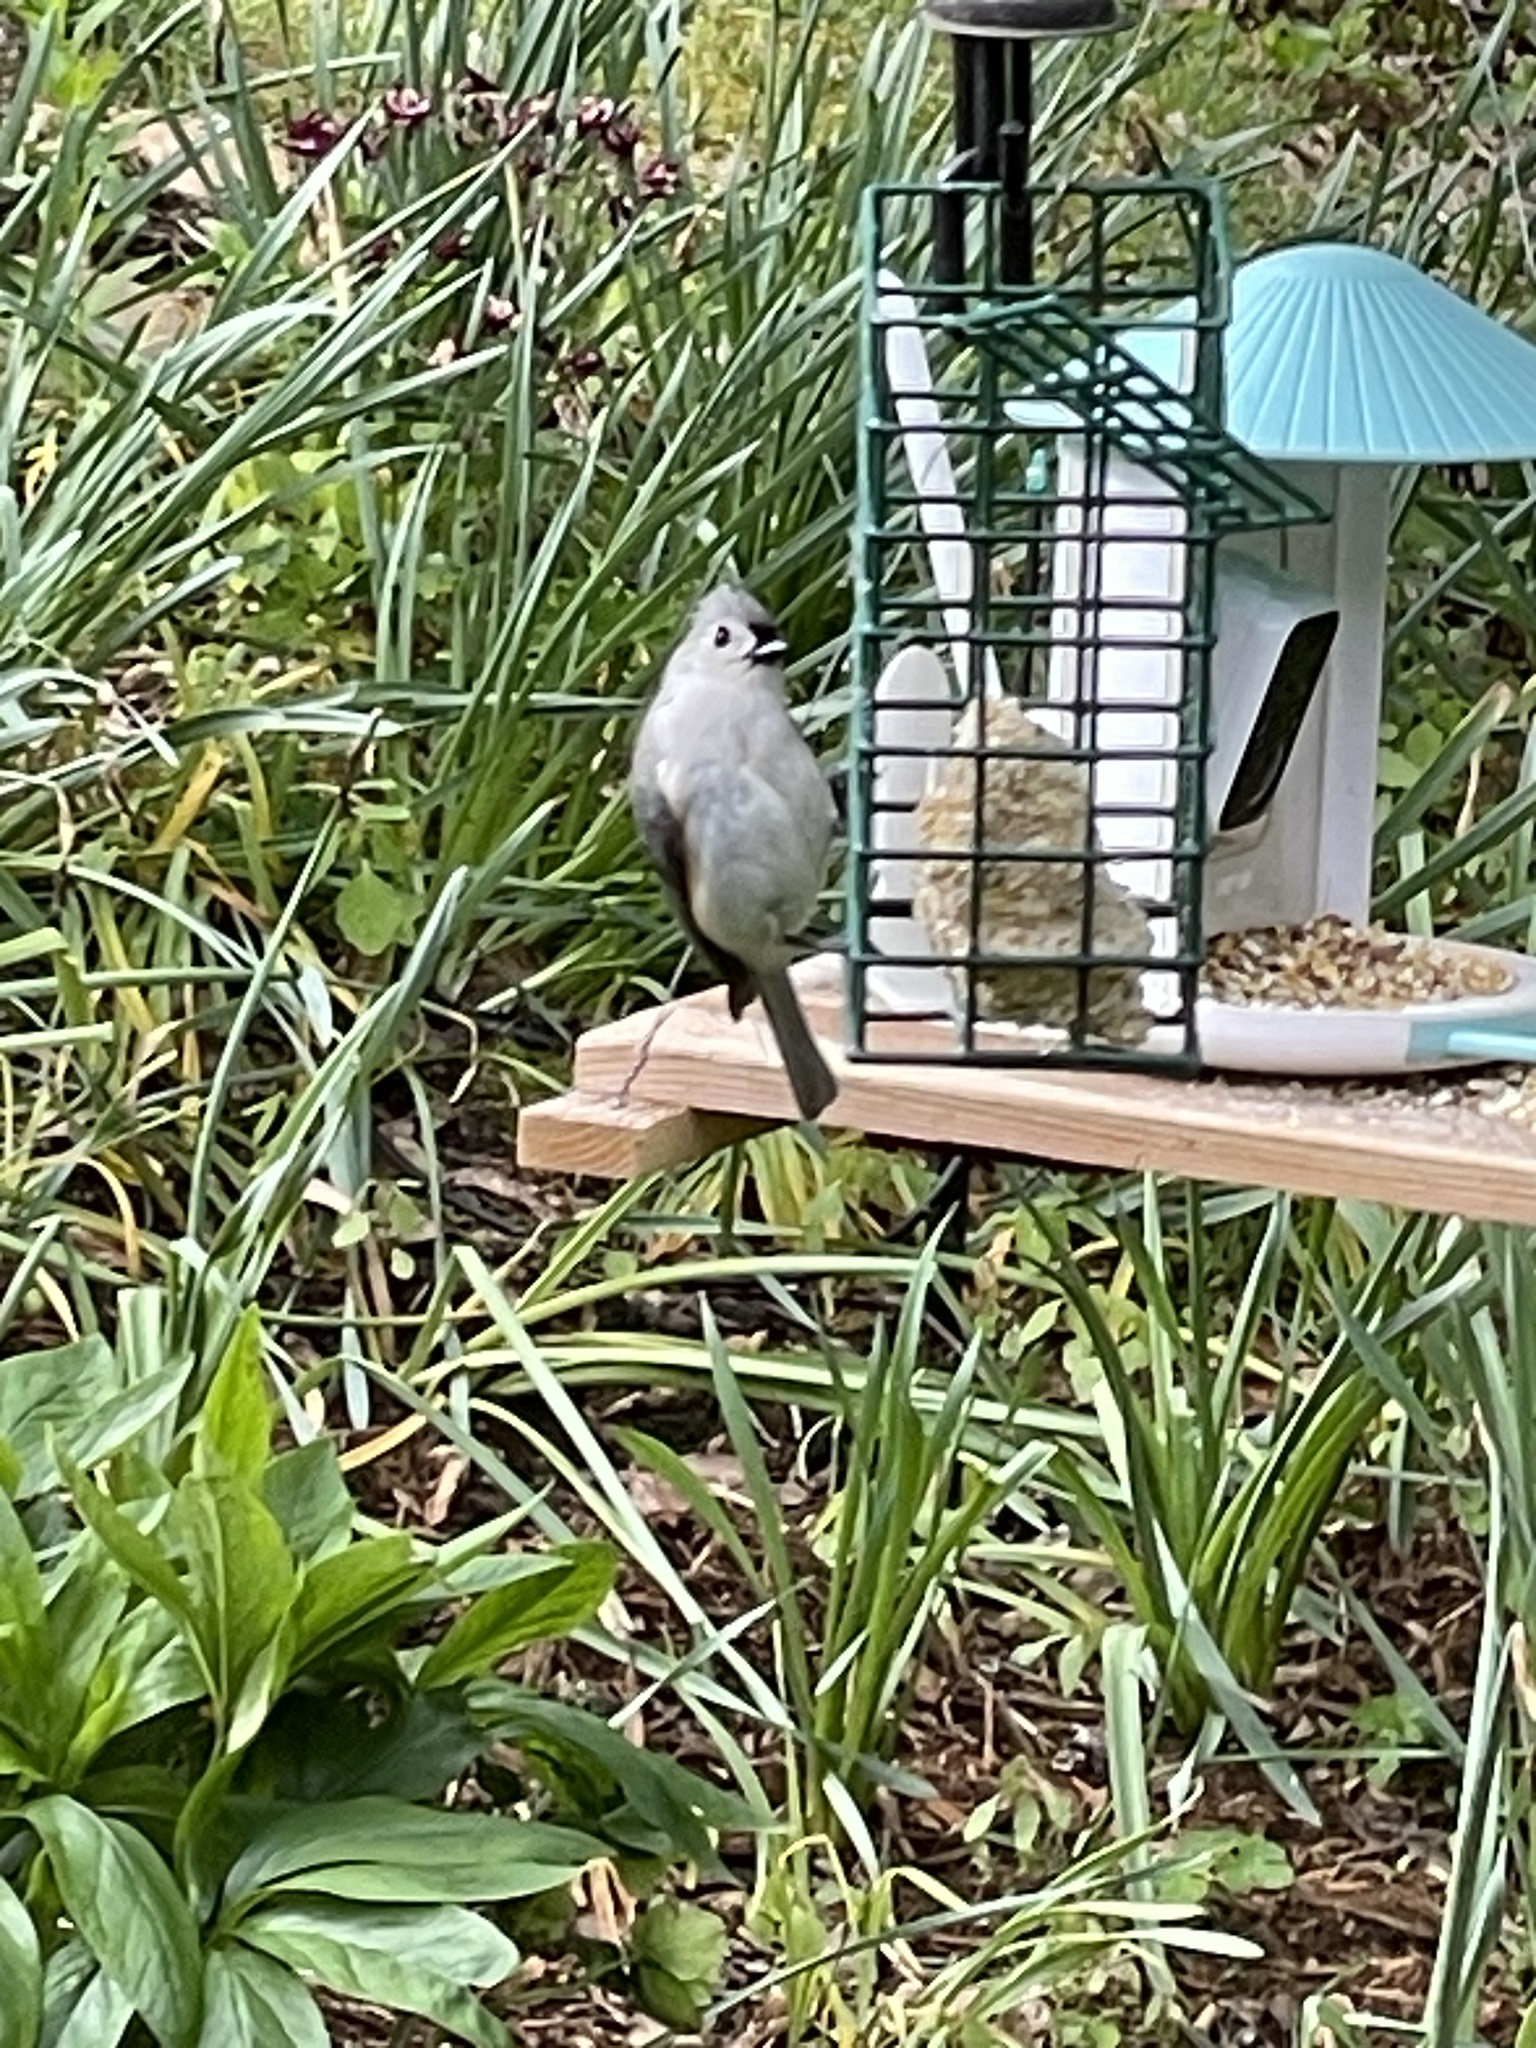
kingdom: Animalia
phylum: Chordata
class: Aves
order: Passeriformes
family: Paridae
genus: Baeolophus
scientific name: Baeolophus bicolor
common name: Tufted titmouse
